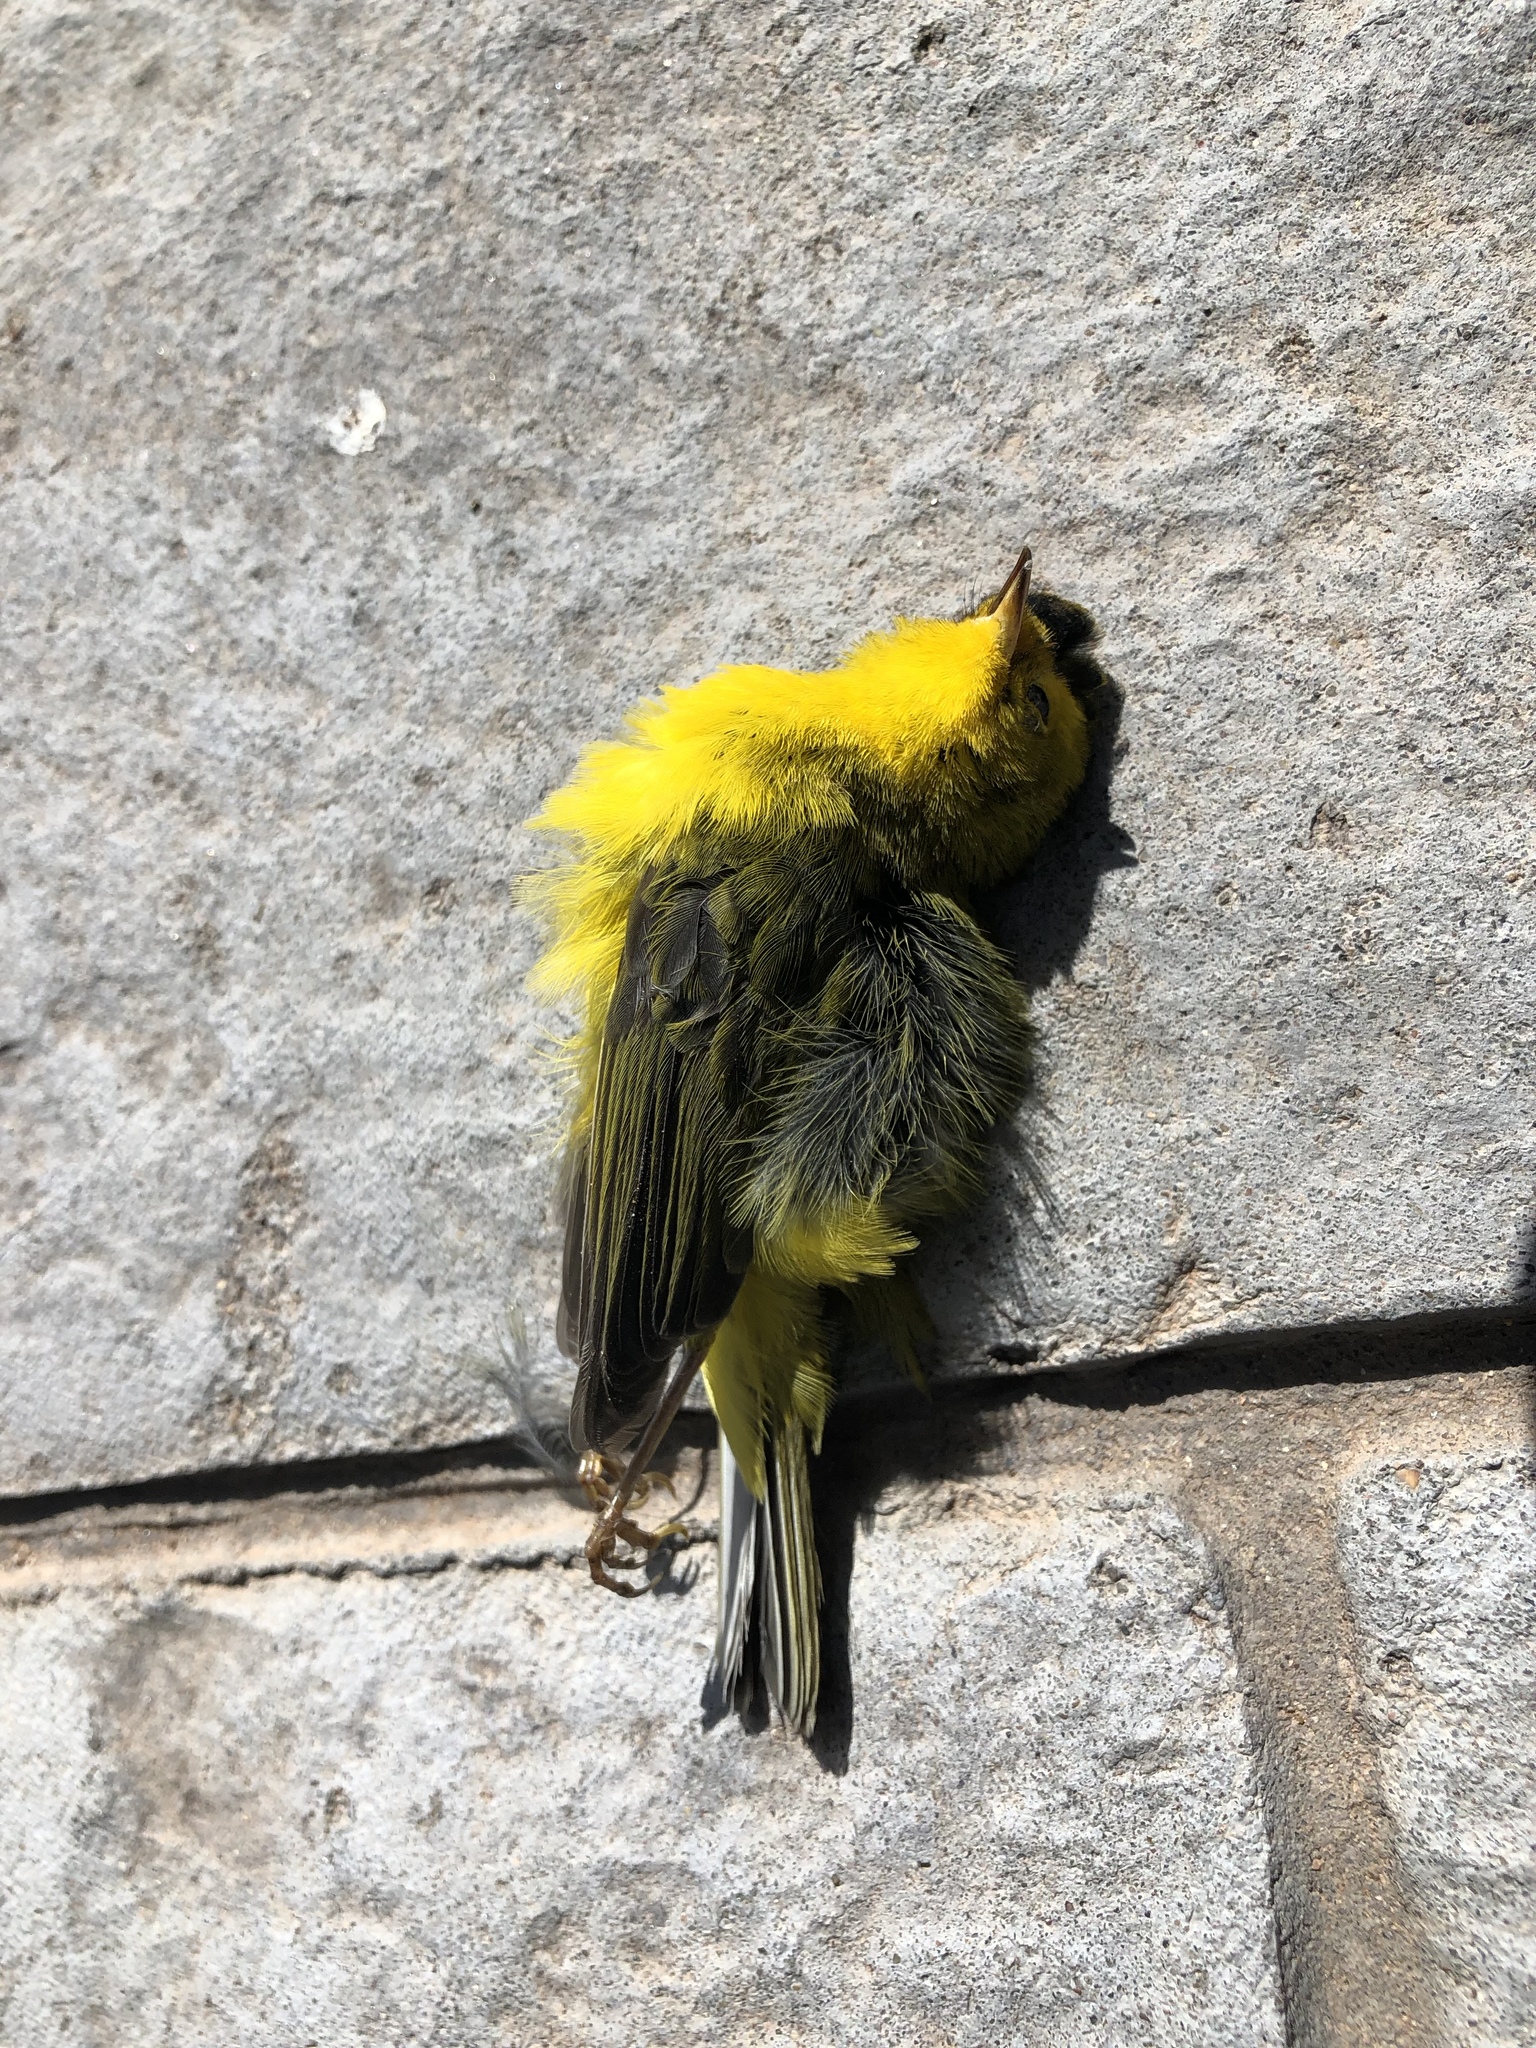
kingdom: Animalia
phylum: Chordata
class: Aves
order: Passeriformes
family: Parulidae
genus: Cardellina
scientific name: Cardellina pusilla
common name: Wilson's warbler
